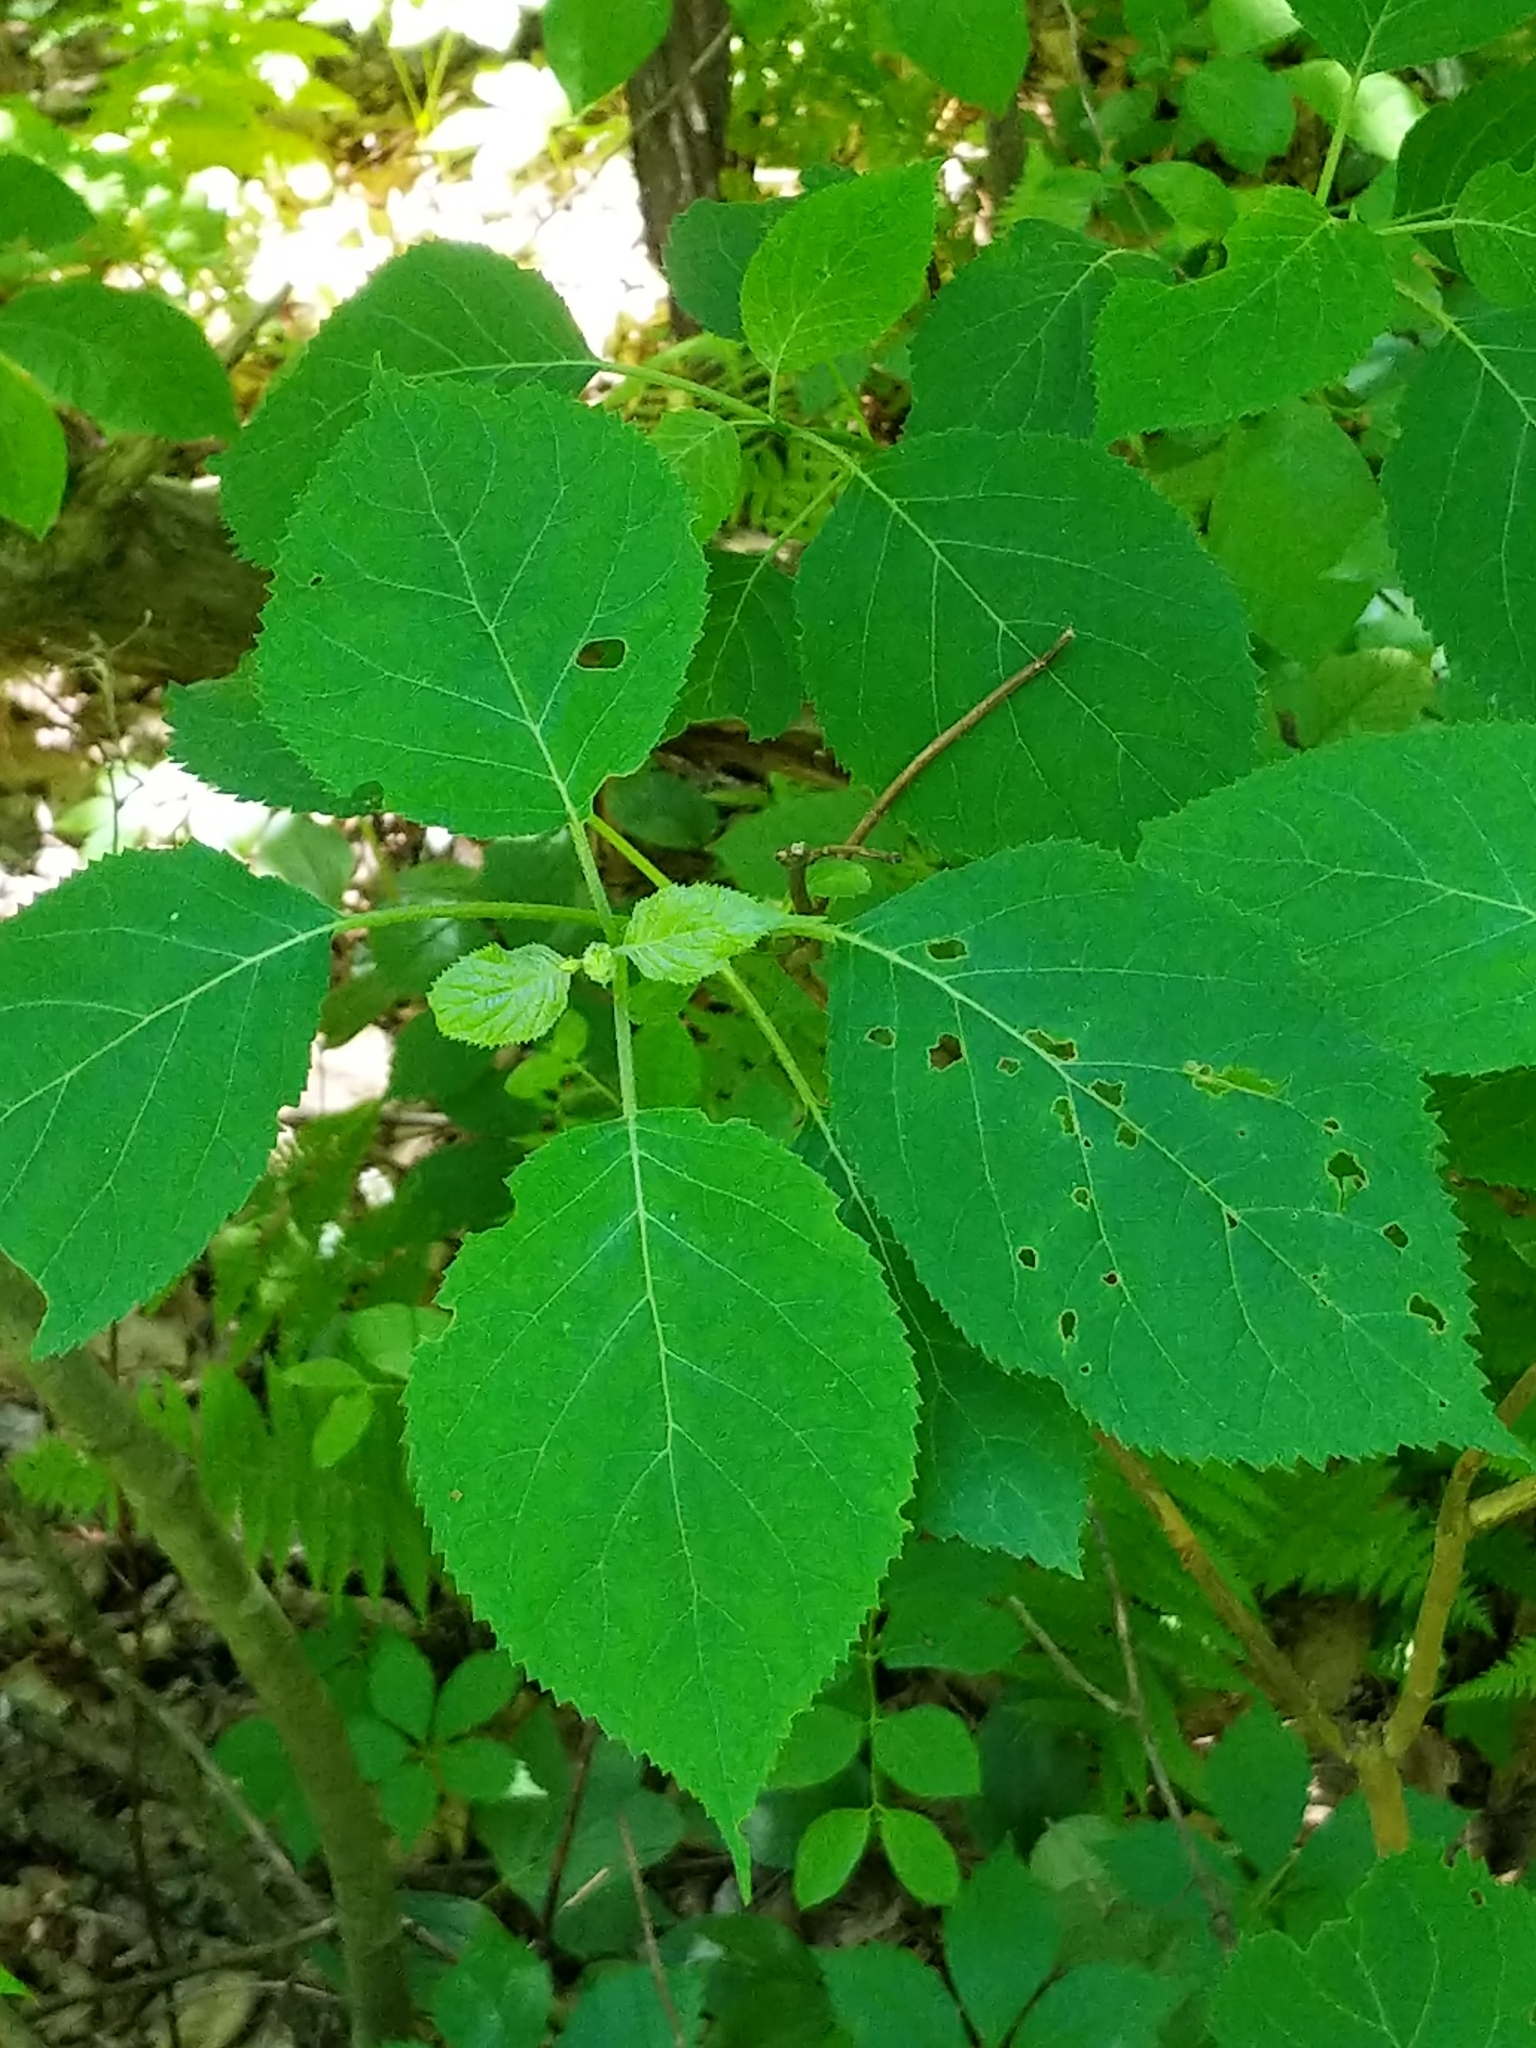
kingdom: Plantae
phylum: Tracheophyta
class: Magnoliopsida
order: Cornales
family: Hydrangeaceae
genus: Hydrangea
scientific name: Hydrangea arborescens
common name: Sevenbark
